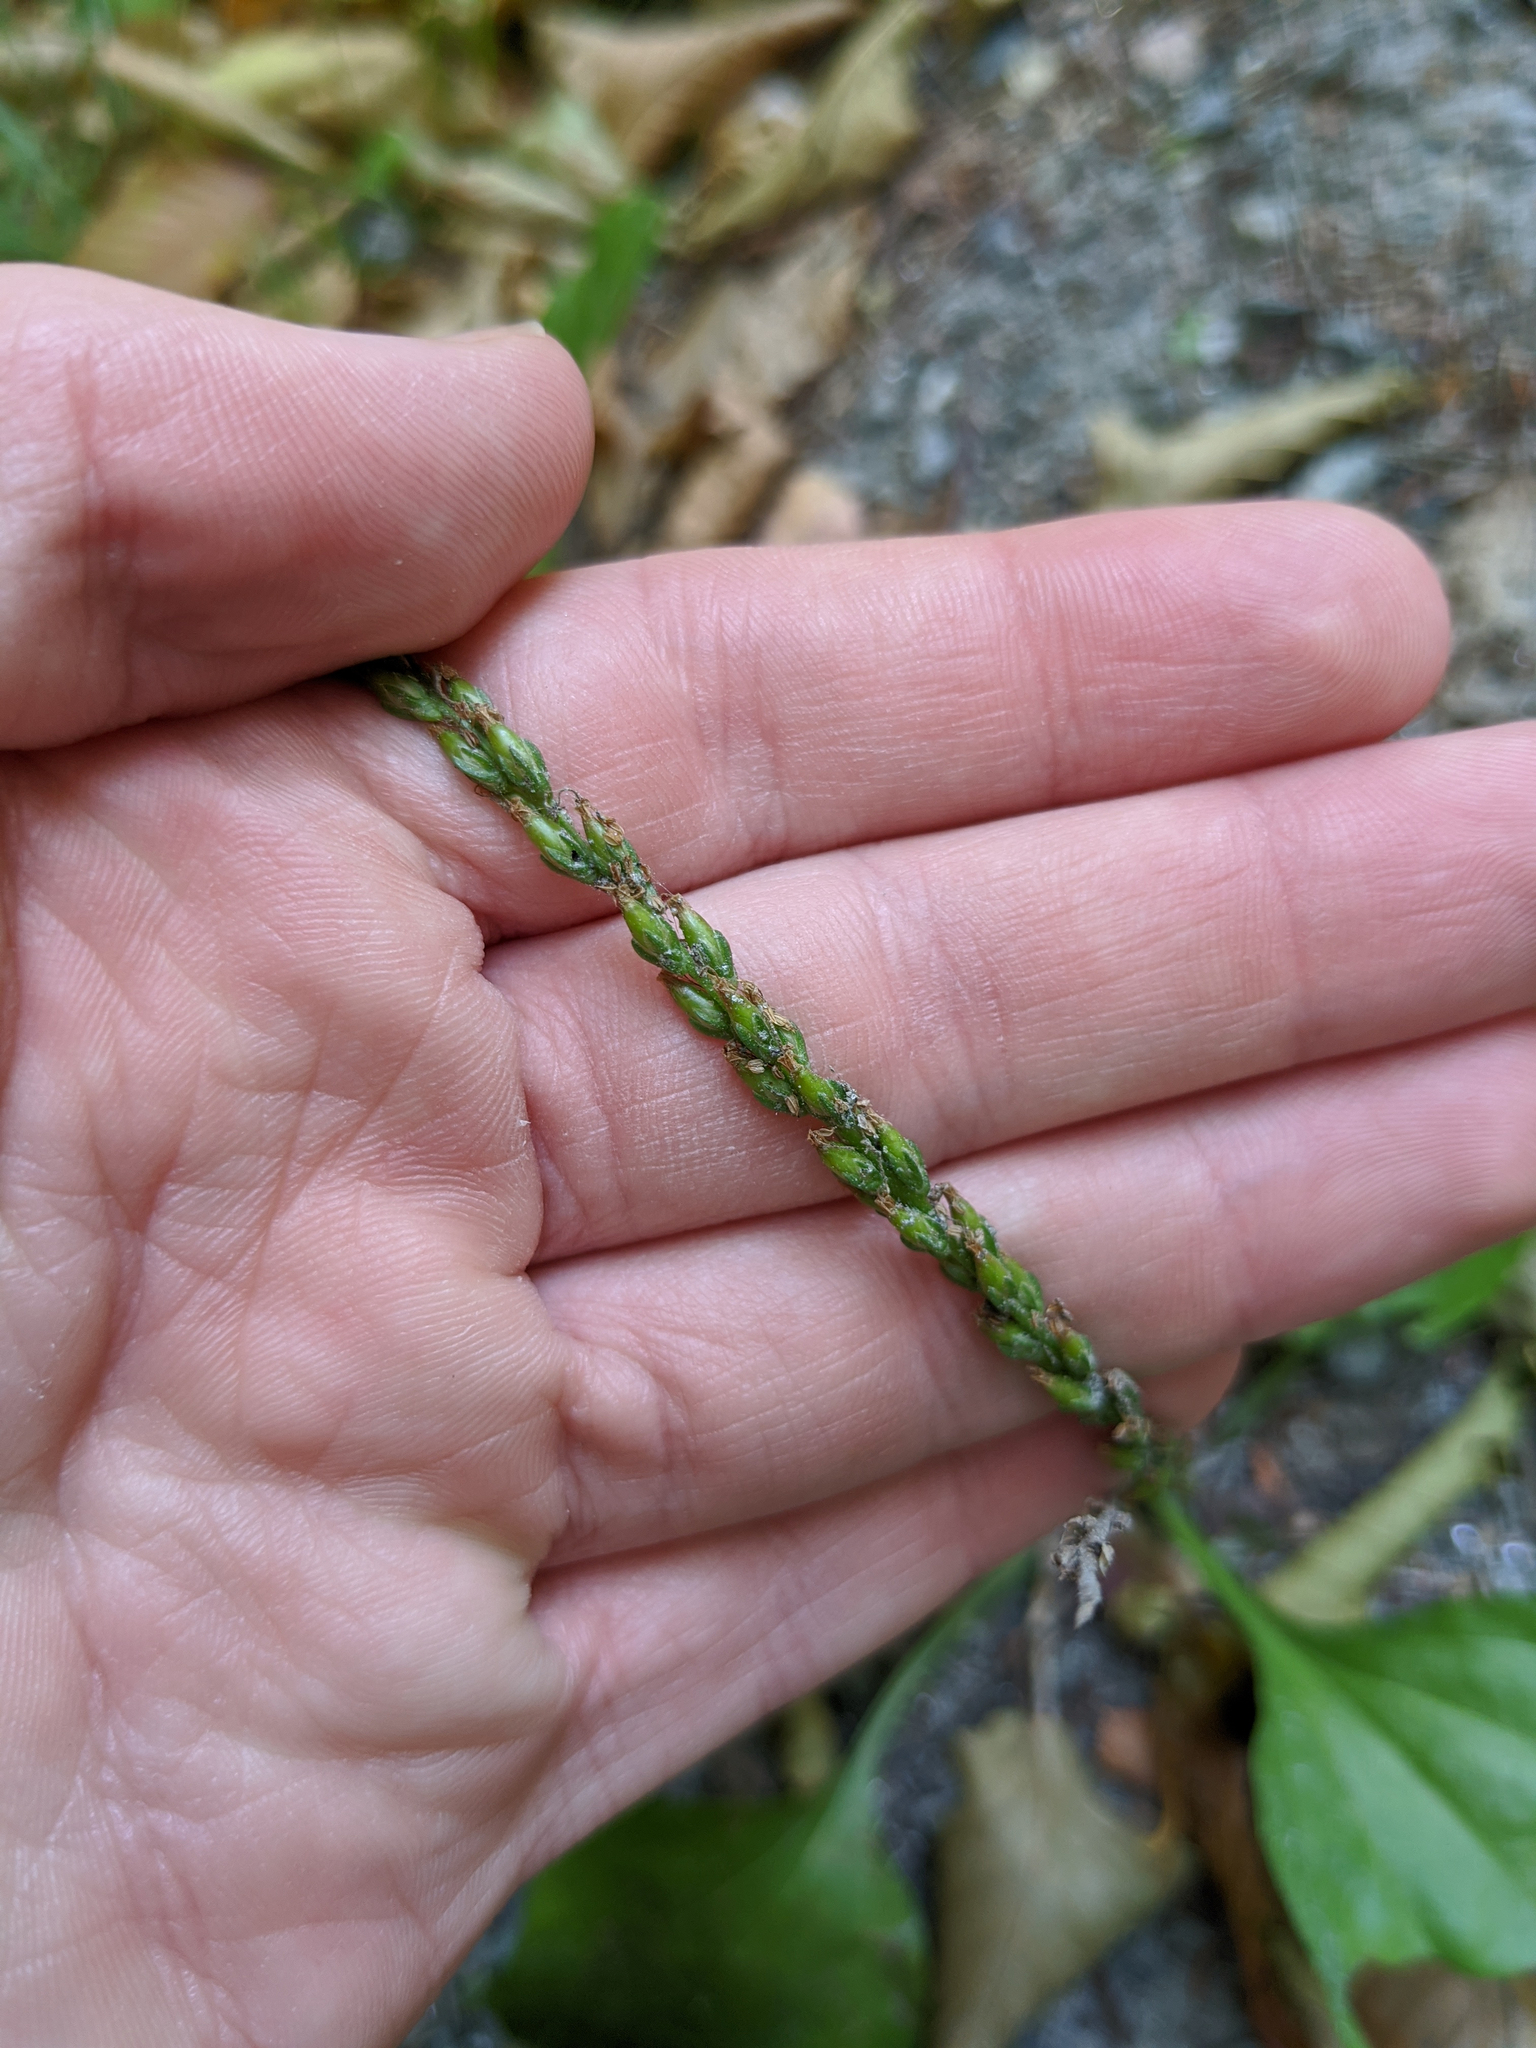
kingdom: Plantae
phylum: Tracheophyta
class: Magnoliopsida
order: Lamiales
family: Plantaginaceae
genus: Plantago
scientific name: Plantago major
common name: Common plantain
